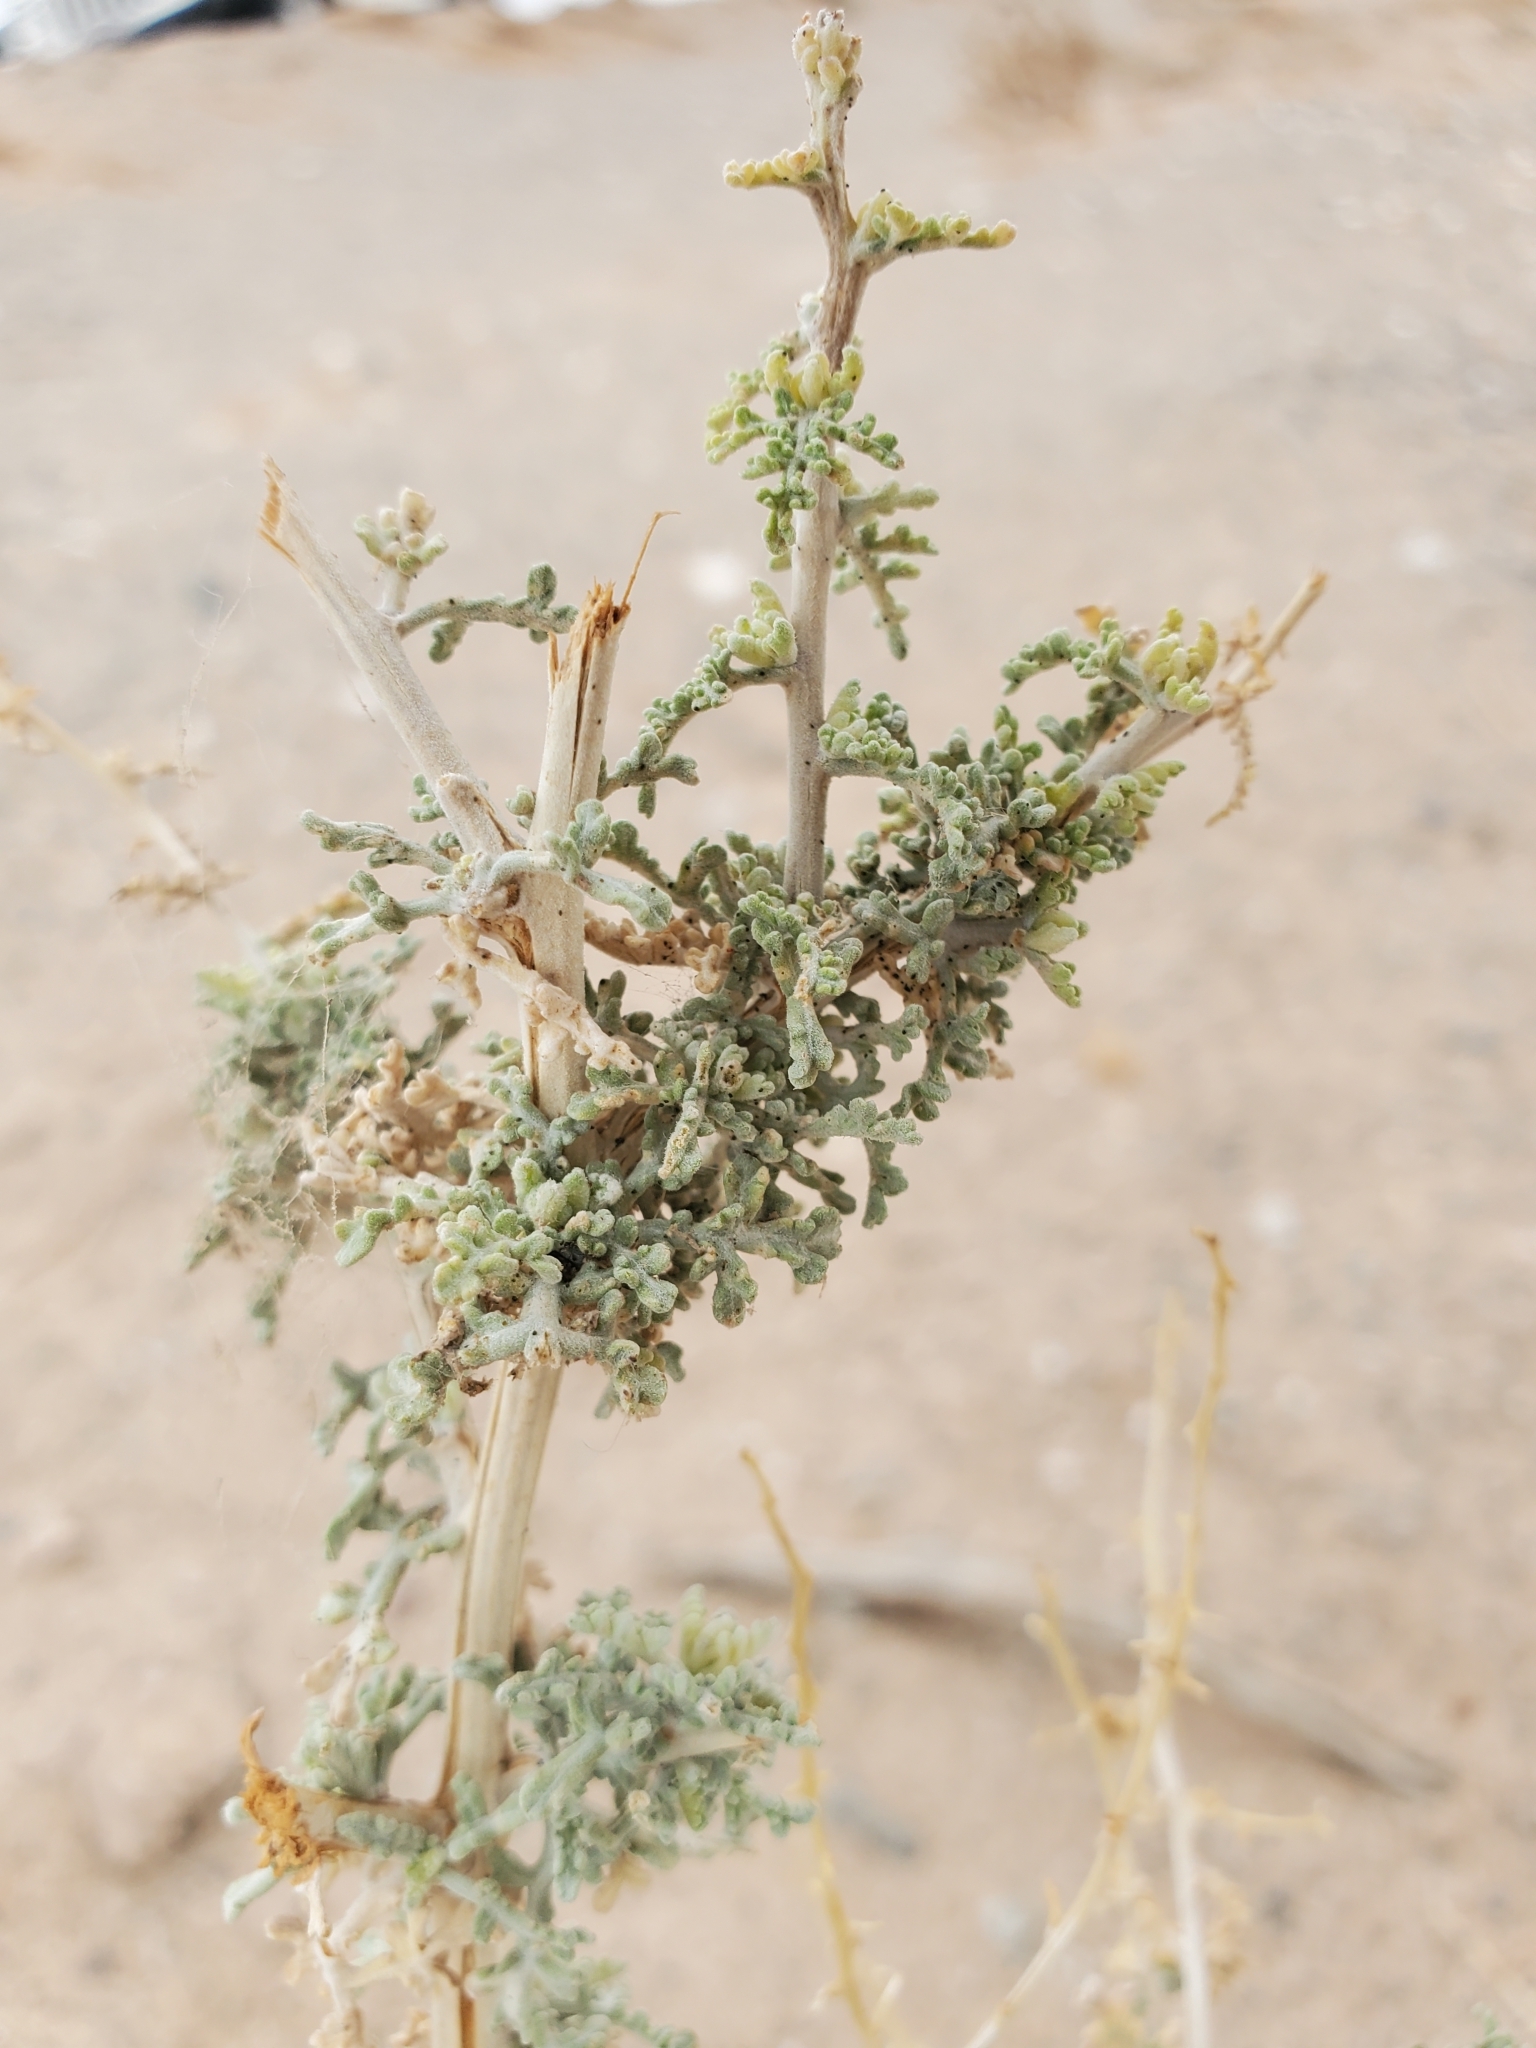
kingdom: Plantae
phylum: Tracheophyta
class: Magnoliopsida
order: Asterales
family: Asteraceae
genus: Ambrosia
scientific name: Ambrosia dumosa
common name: Bur-sage
